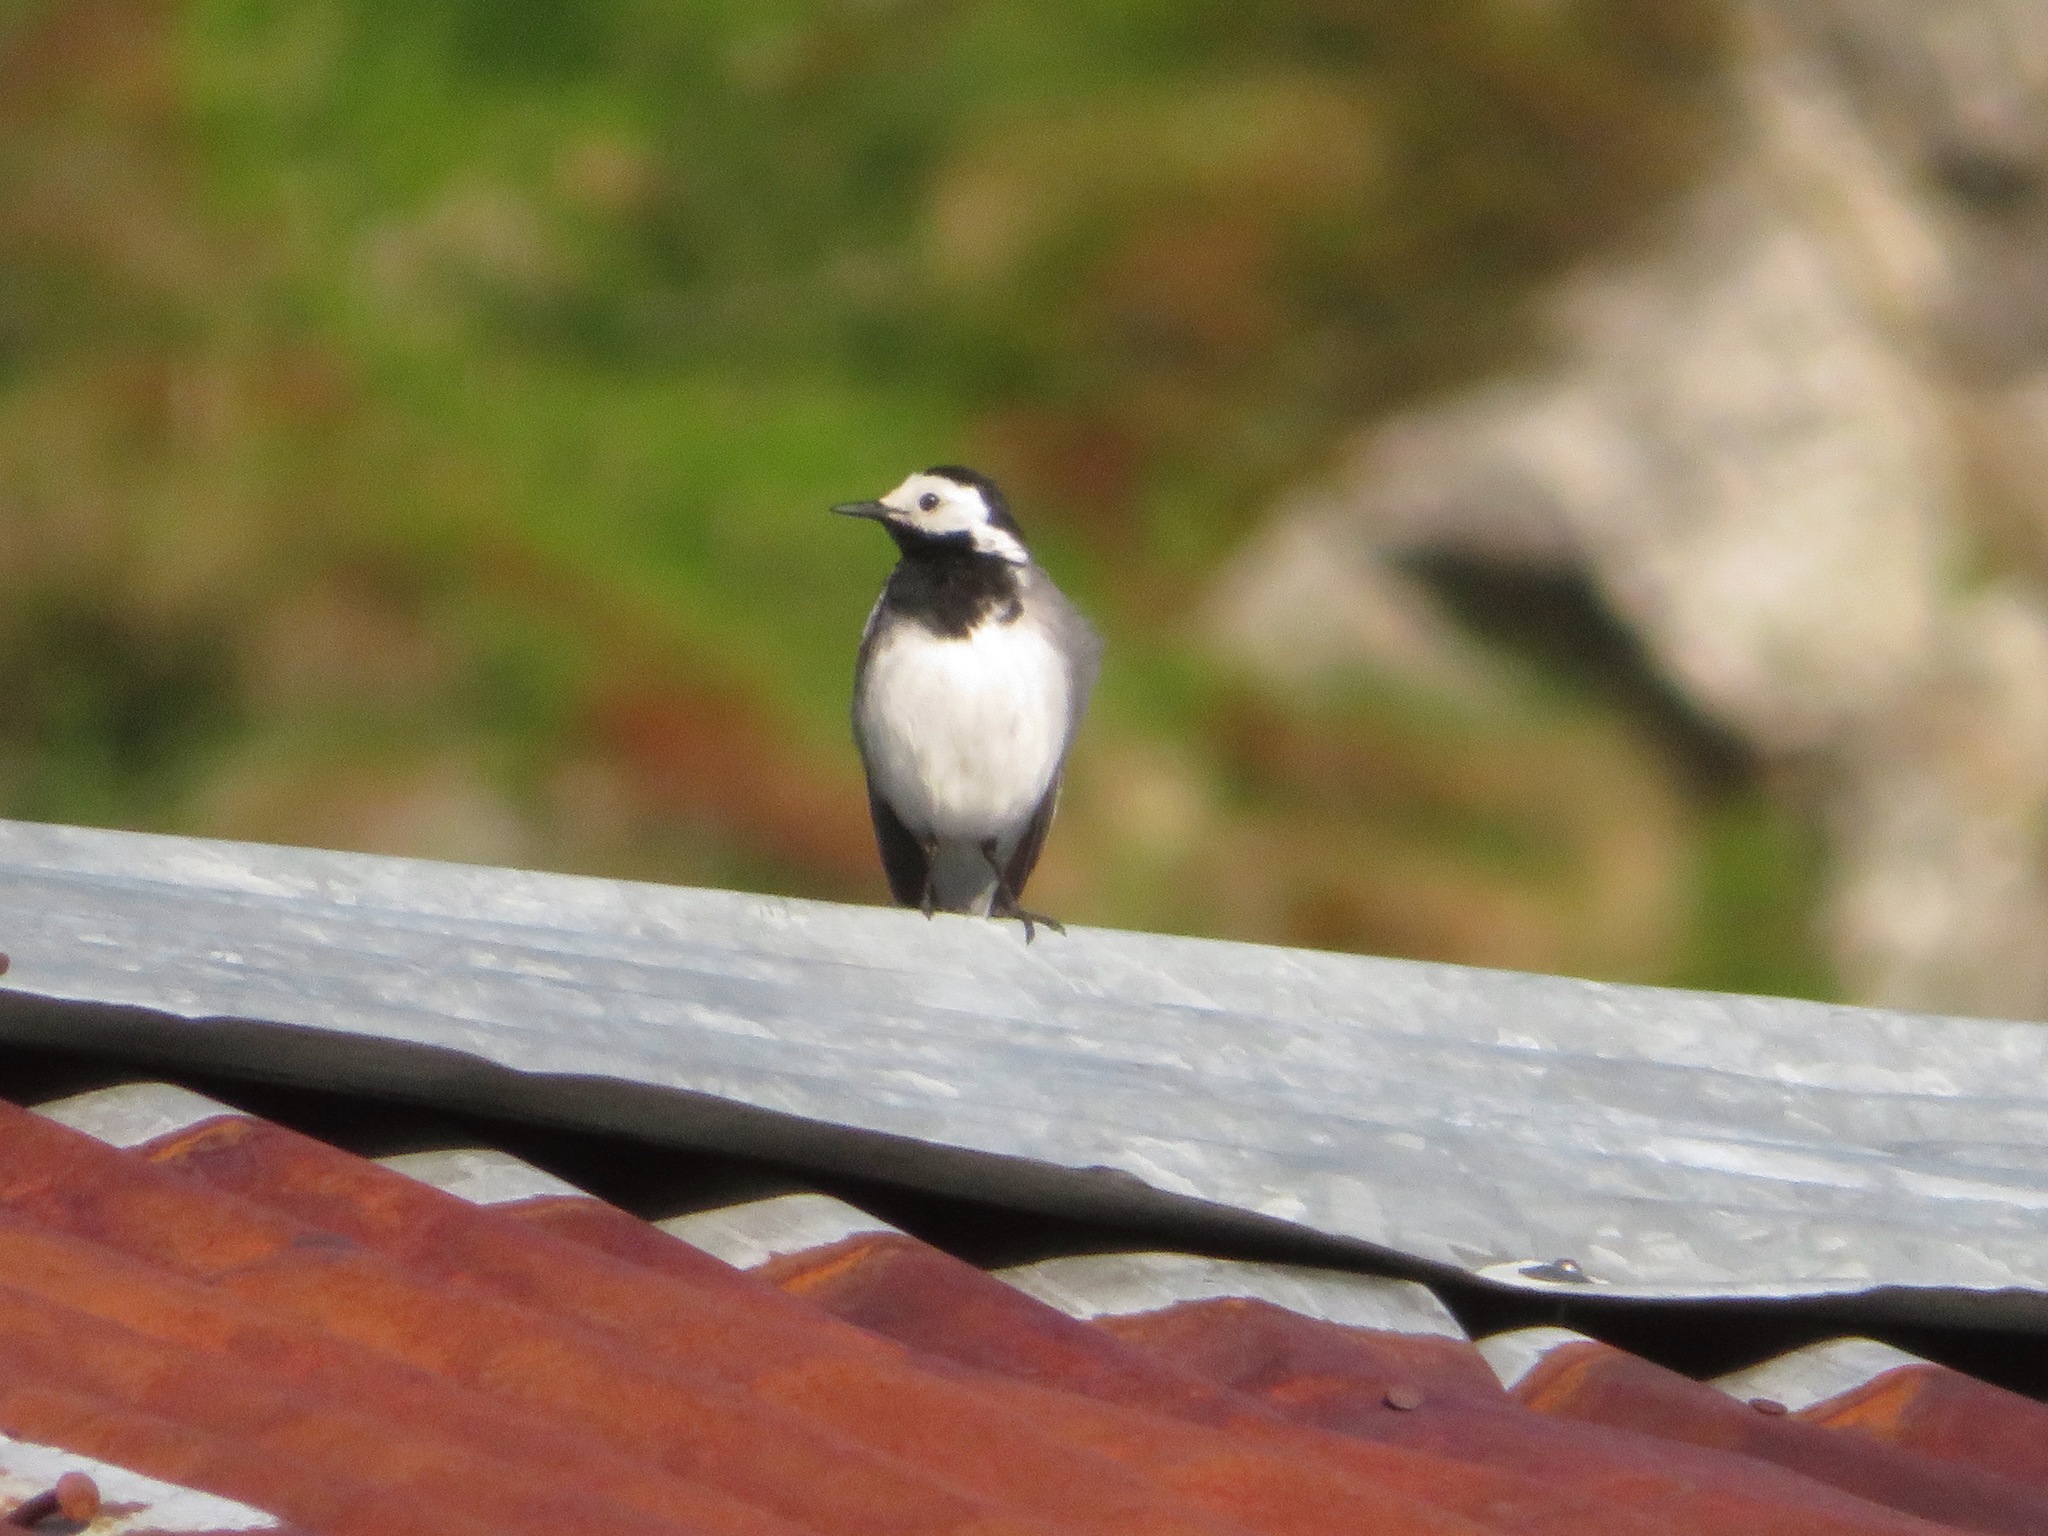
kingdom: Animalia
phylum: Chordata
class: Aves
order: Passeriformes
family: Motacillidae
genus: Motacilla
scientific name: Motacilla alba
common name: White wagtail
